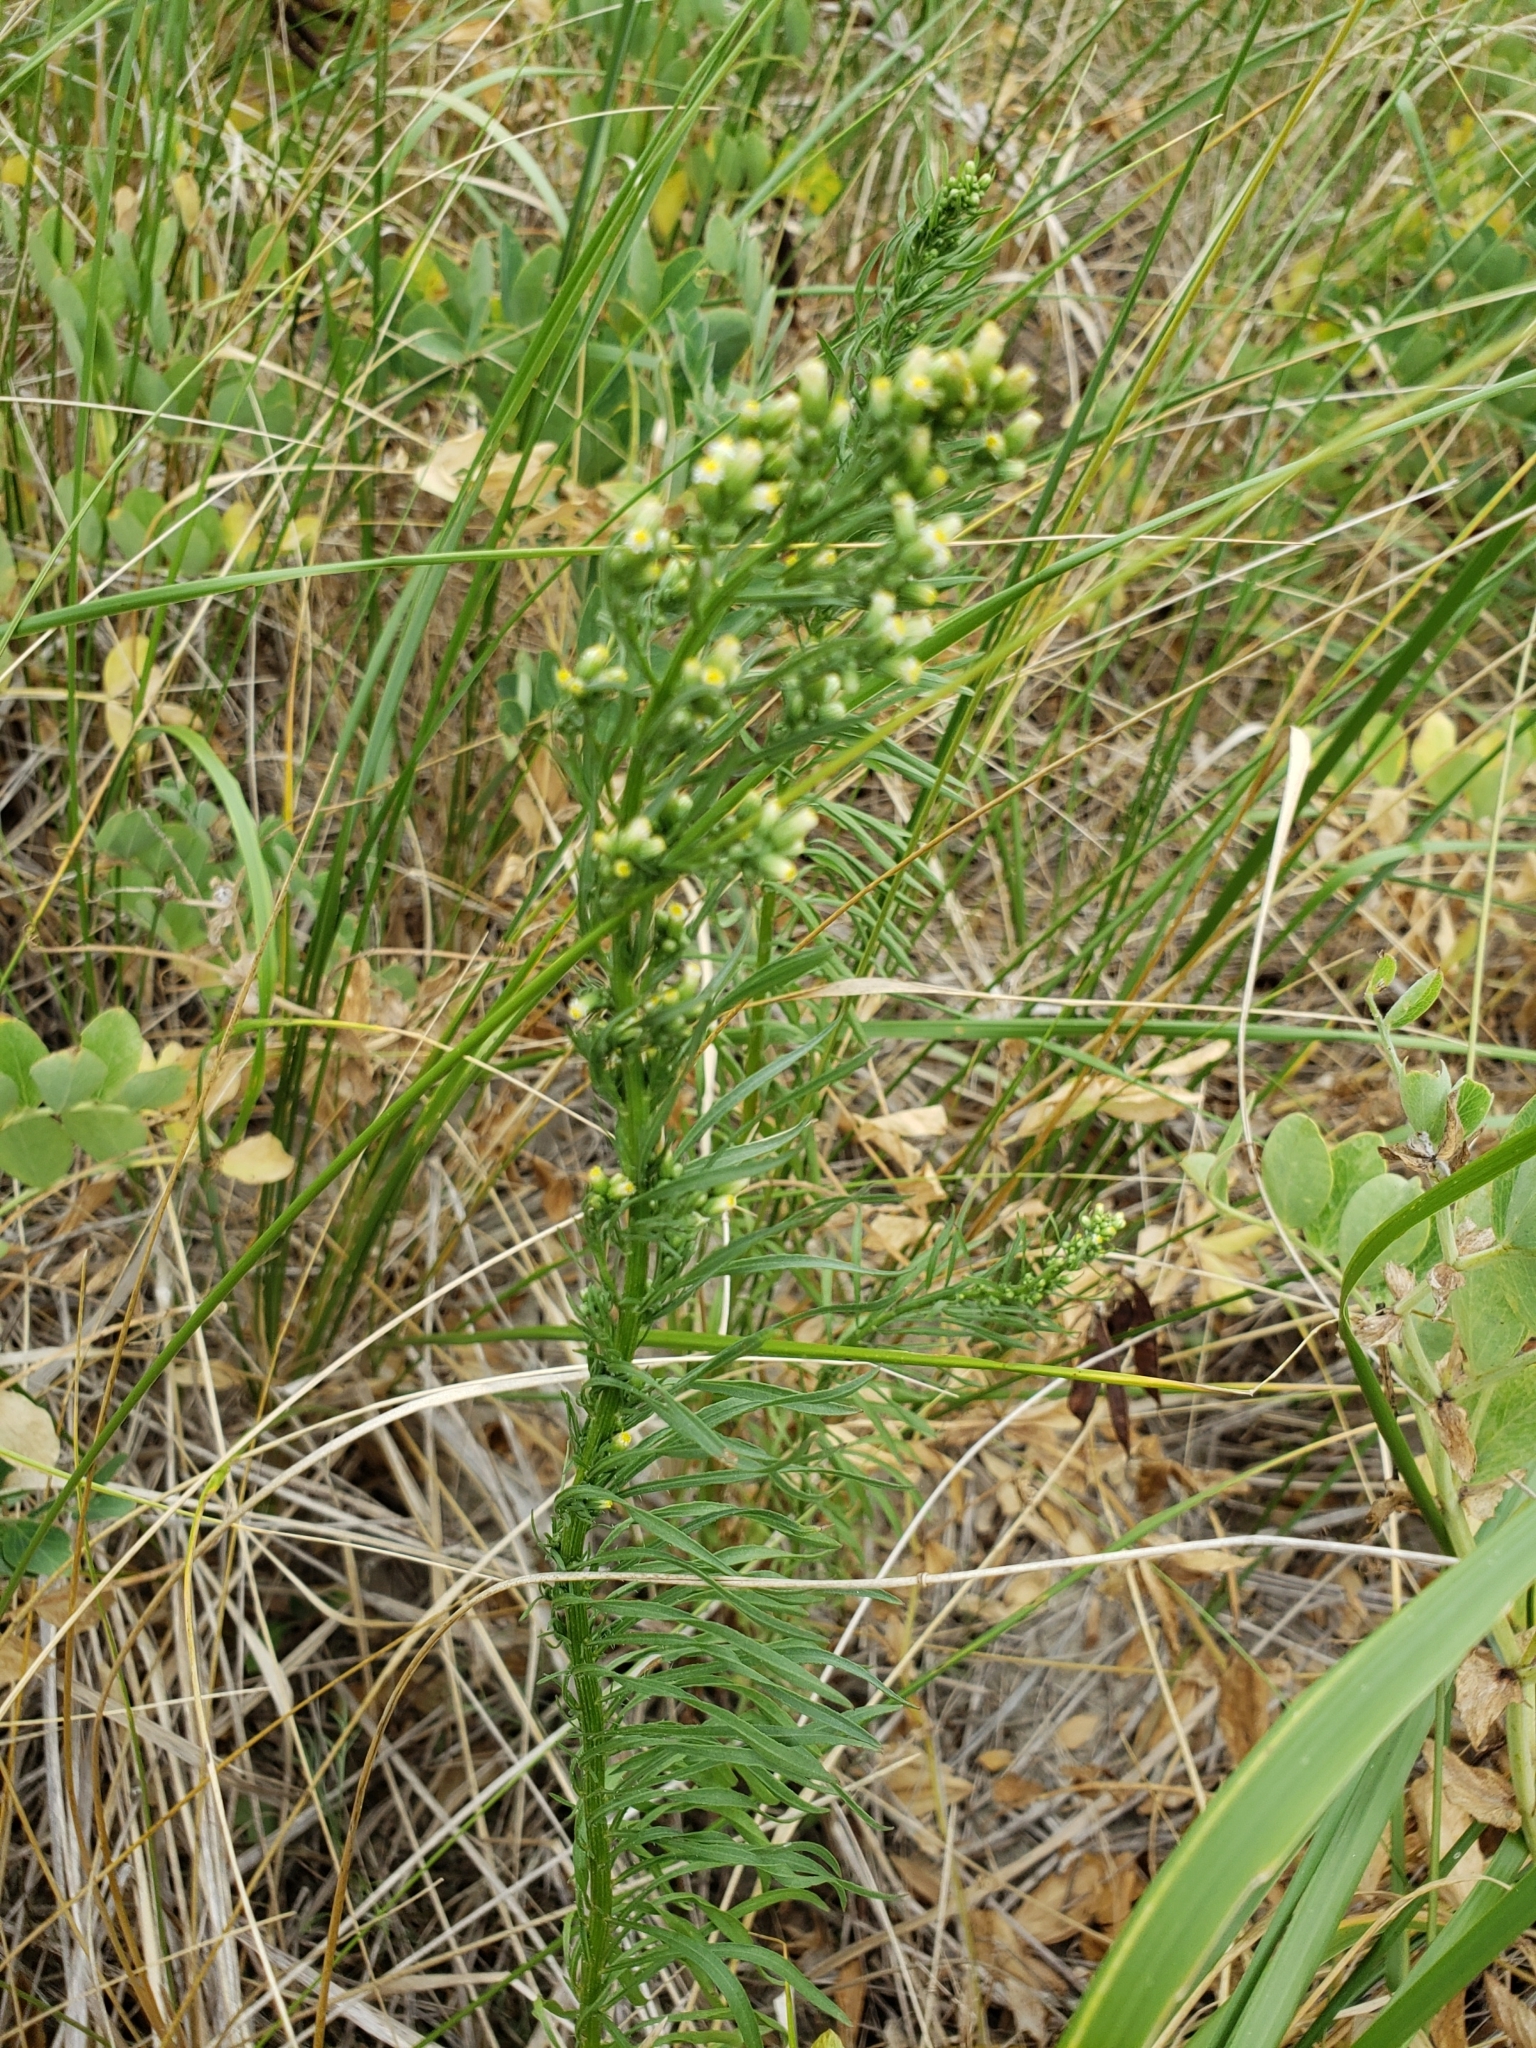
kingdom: Plantae
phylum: Tracheophyta
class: Magnoliopsida
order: Asterales
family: Asteraceae
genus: Erigeron
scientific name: Erigeron canadensis
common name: Canadian fleabane
